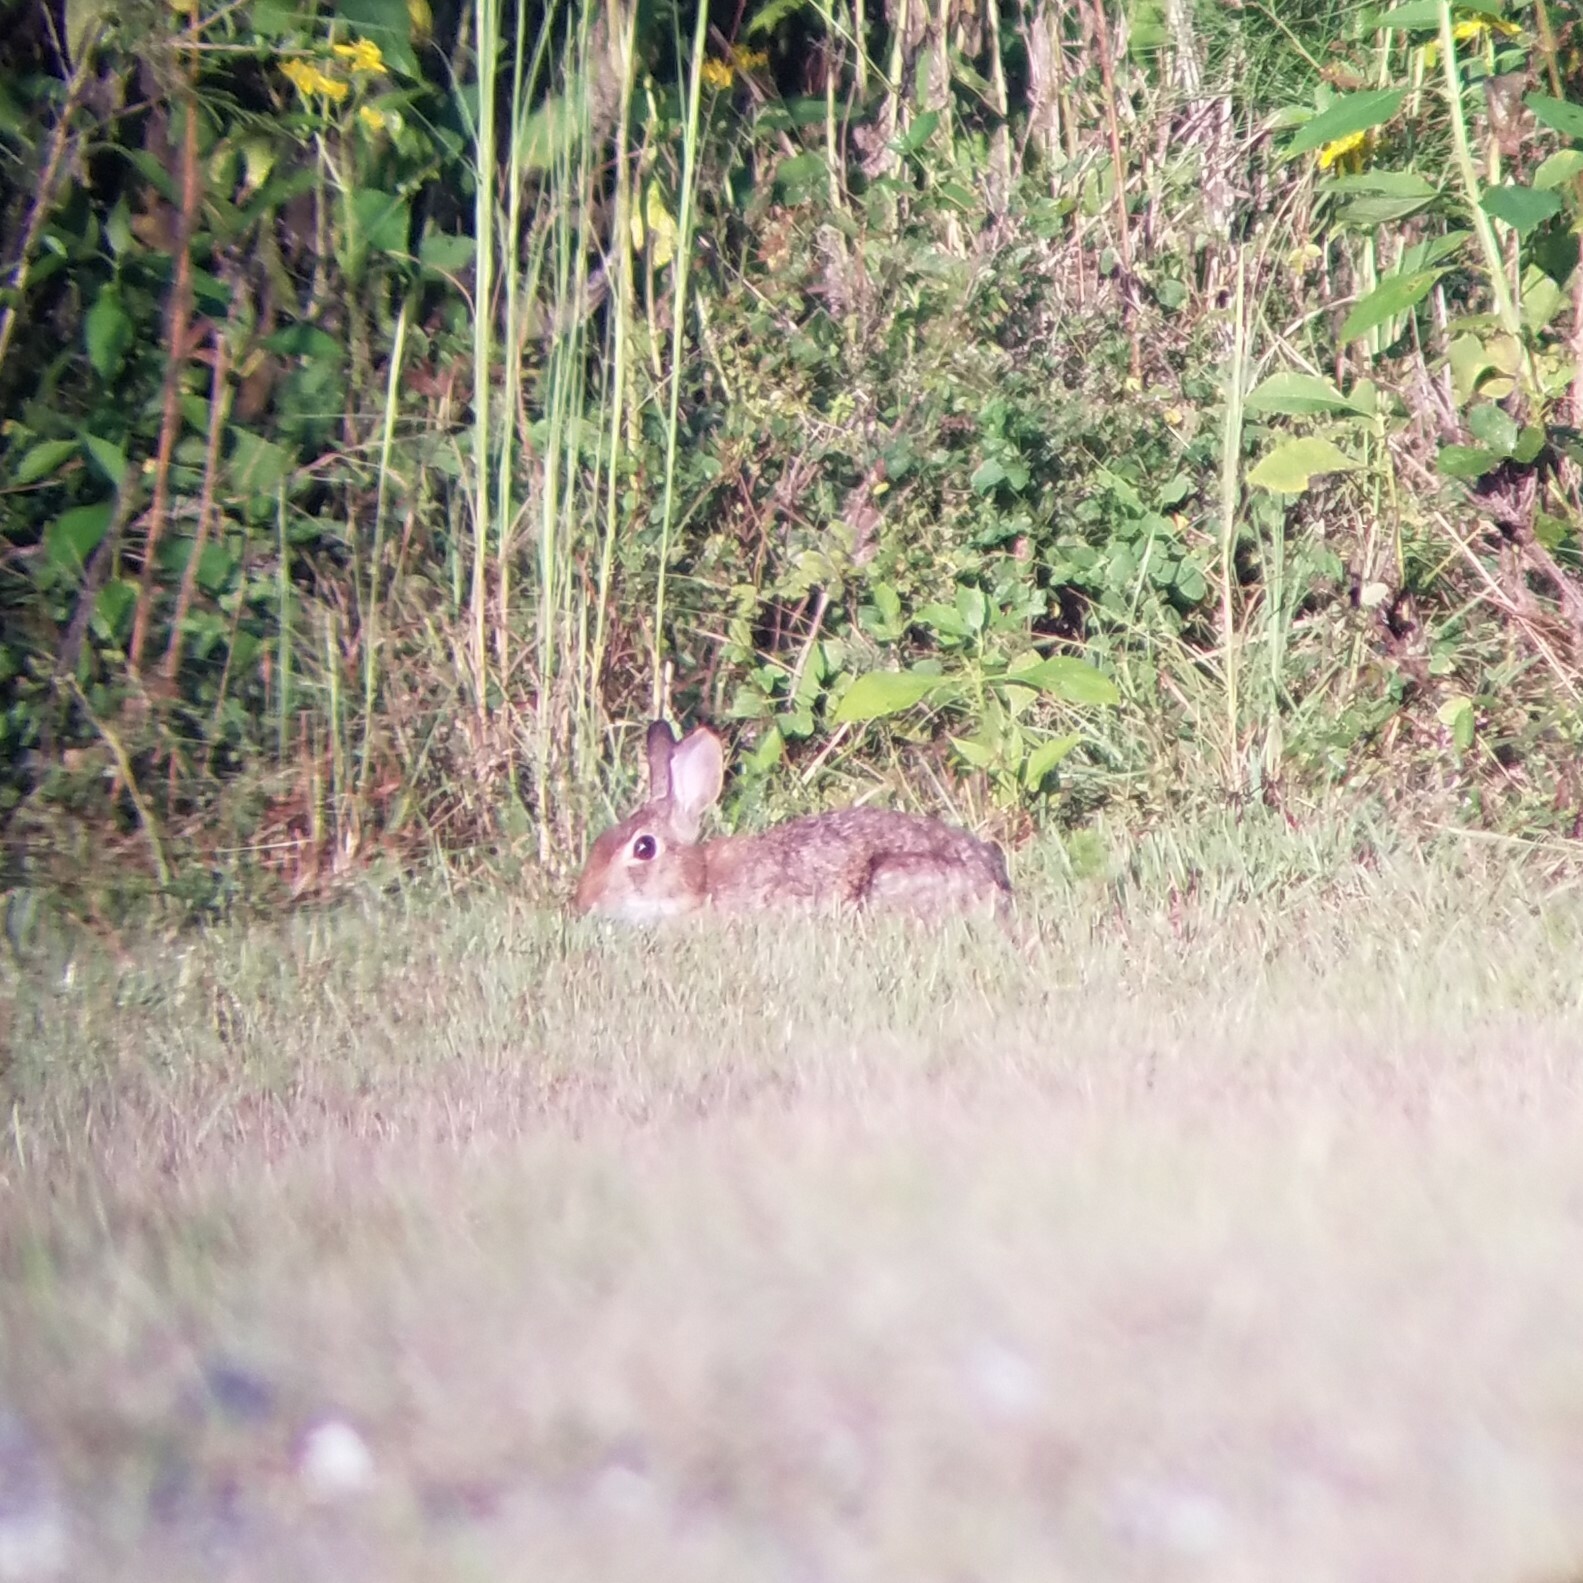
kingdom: Animalia
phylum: Chordata
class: Mammalia
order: Lagomorpha
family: Leporidae
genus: Sylvilagus
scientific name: Sylvilagus floridanus
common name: Eastern cottontail
